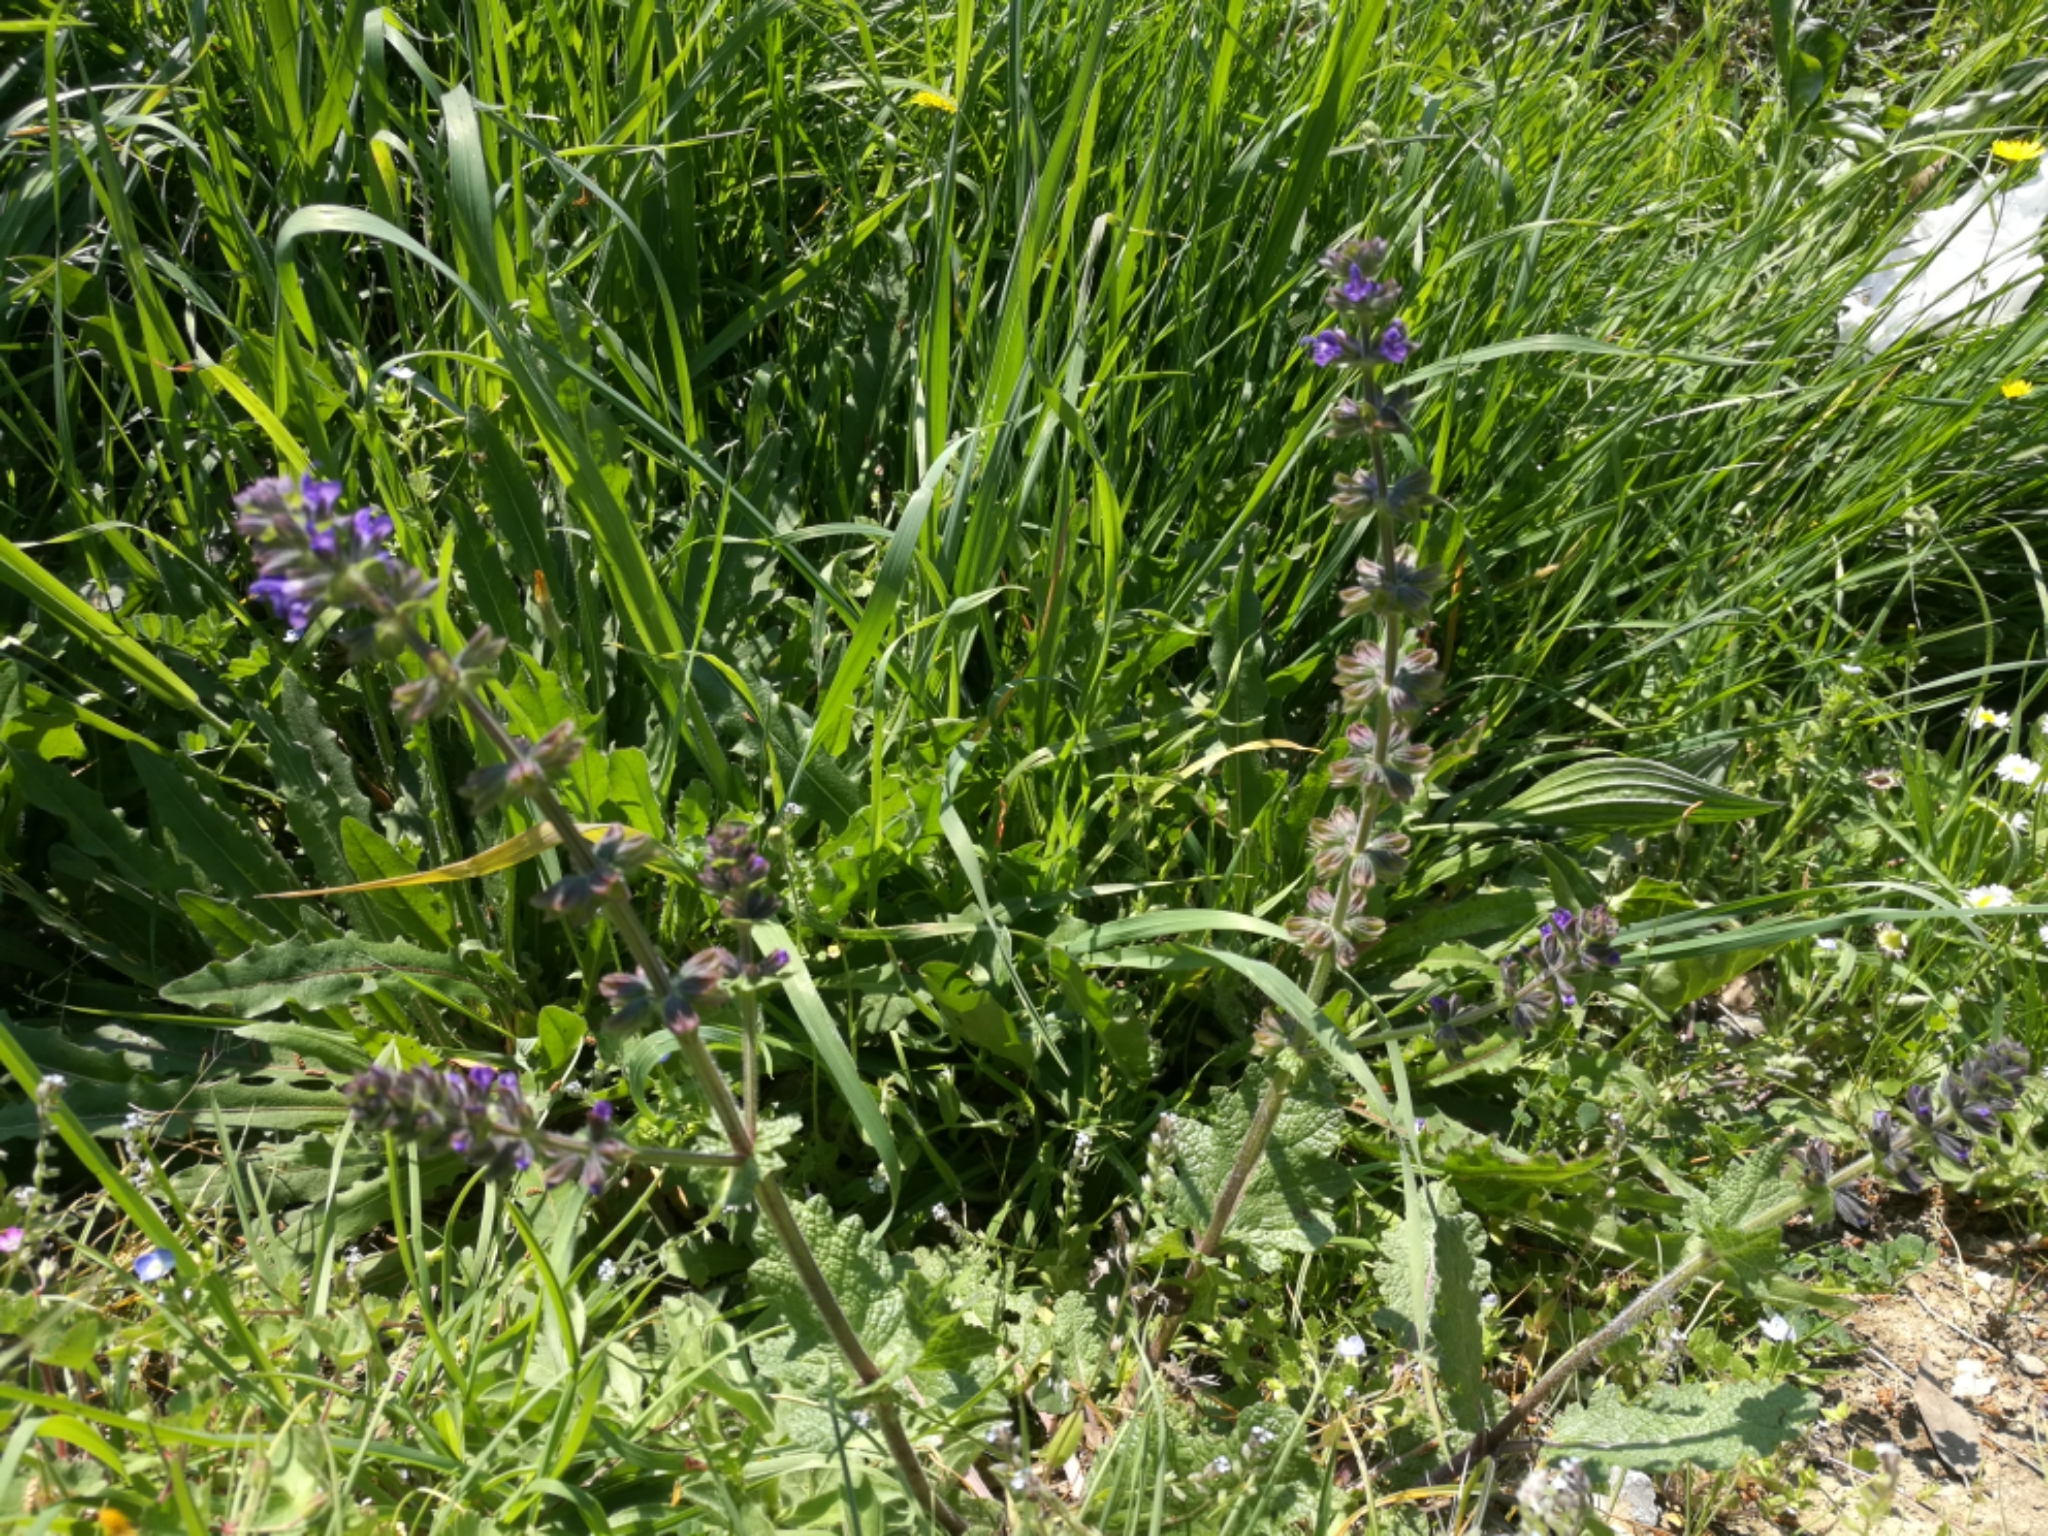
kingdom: Plantae
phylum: Tracheophyta
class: Magnoliopsida
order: Lamiales
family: Lamiaceae
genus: Salvia
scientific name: Salvia verbenaca
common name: Wild clary
